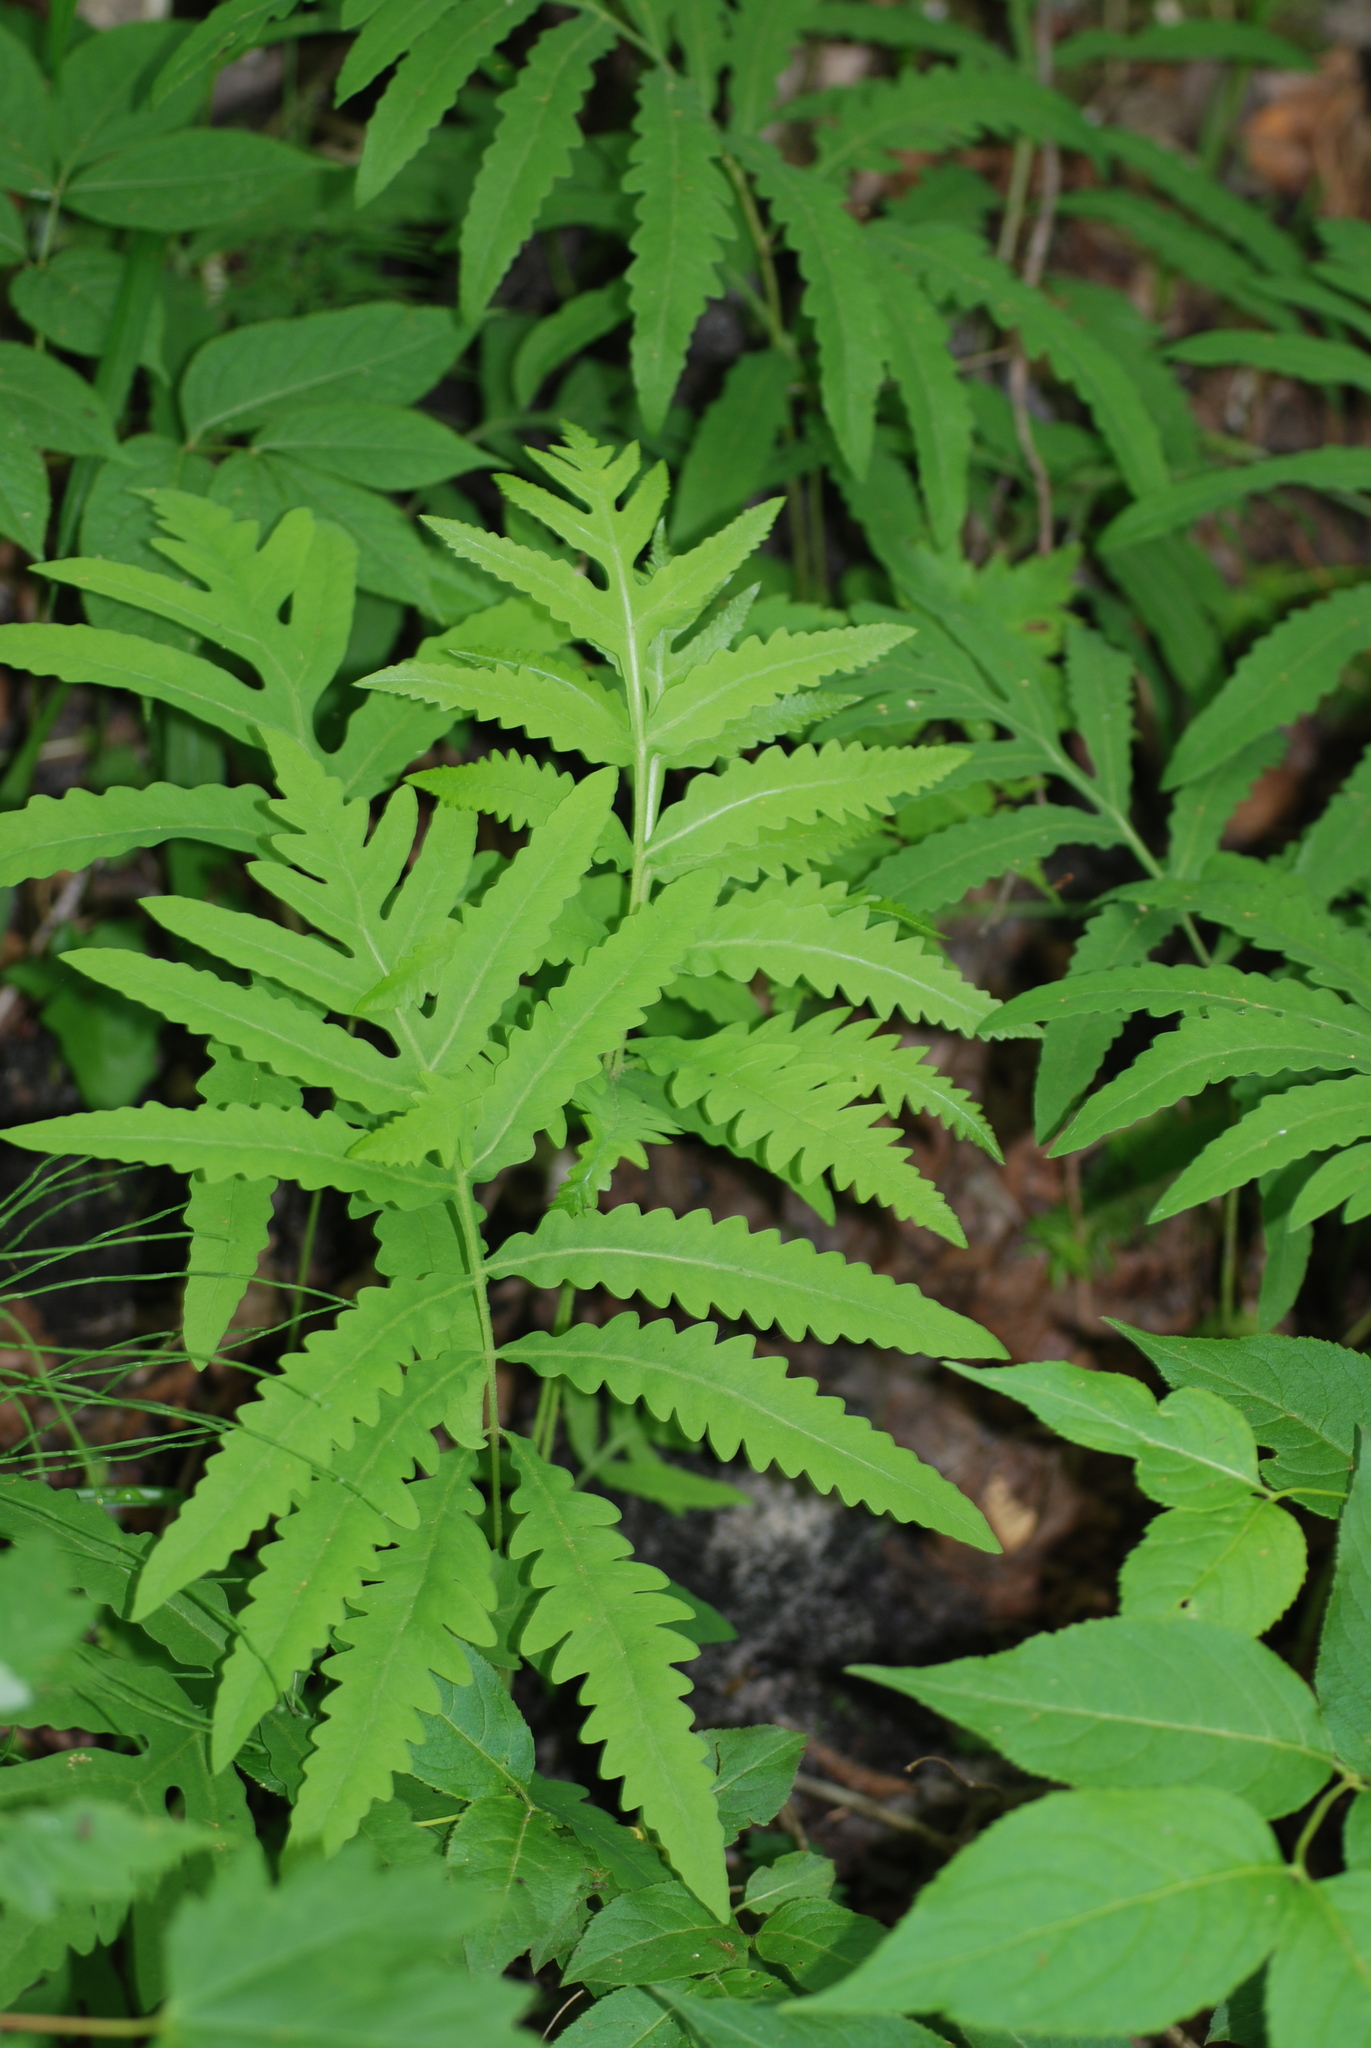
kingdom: Plantae
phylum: Tracheophyta
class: Polypodiopsida
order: Polypodiales
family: Onocleaceae
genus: Onoclea
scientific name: Onoclea sensibilis
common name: Sensitive fern
